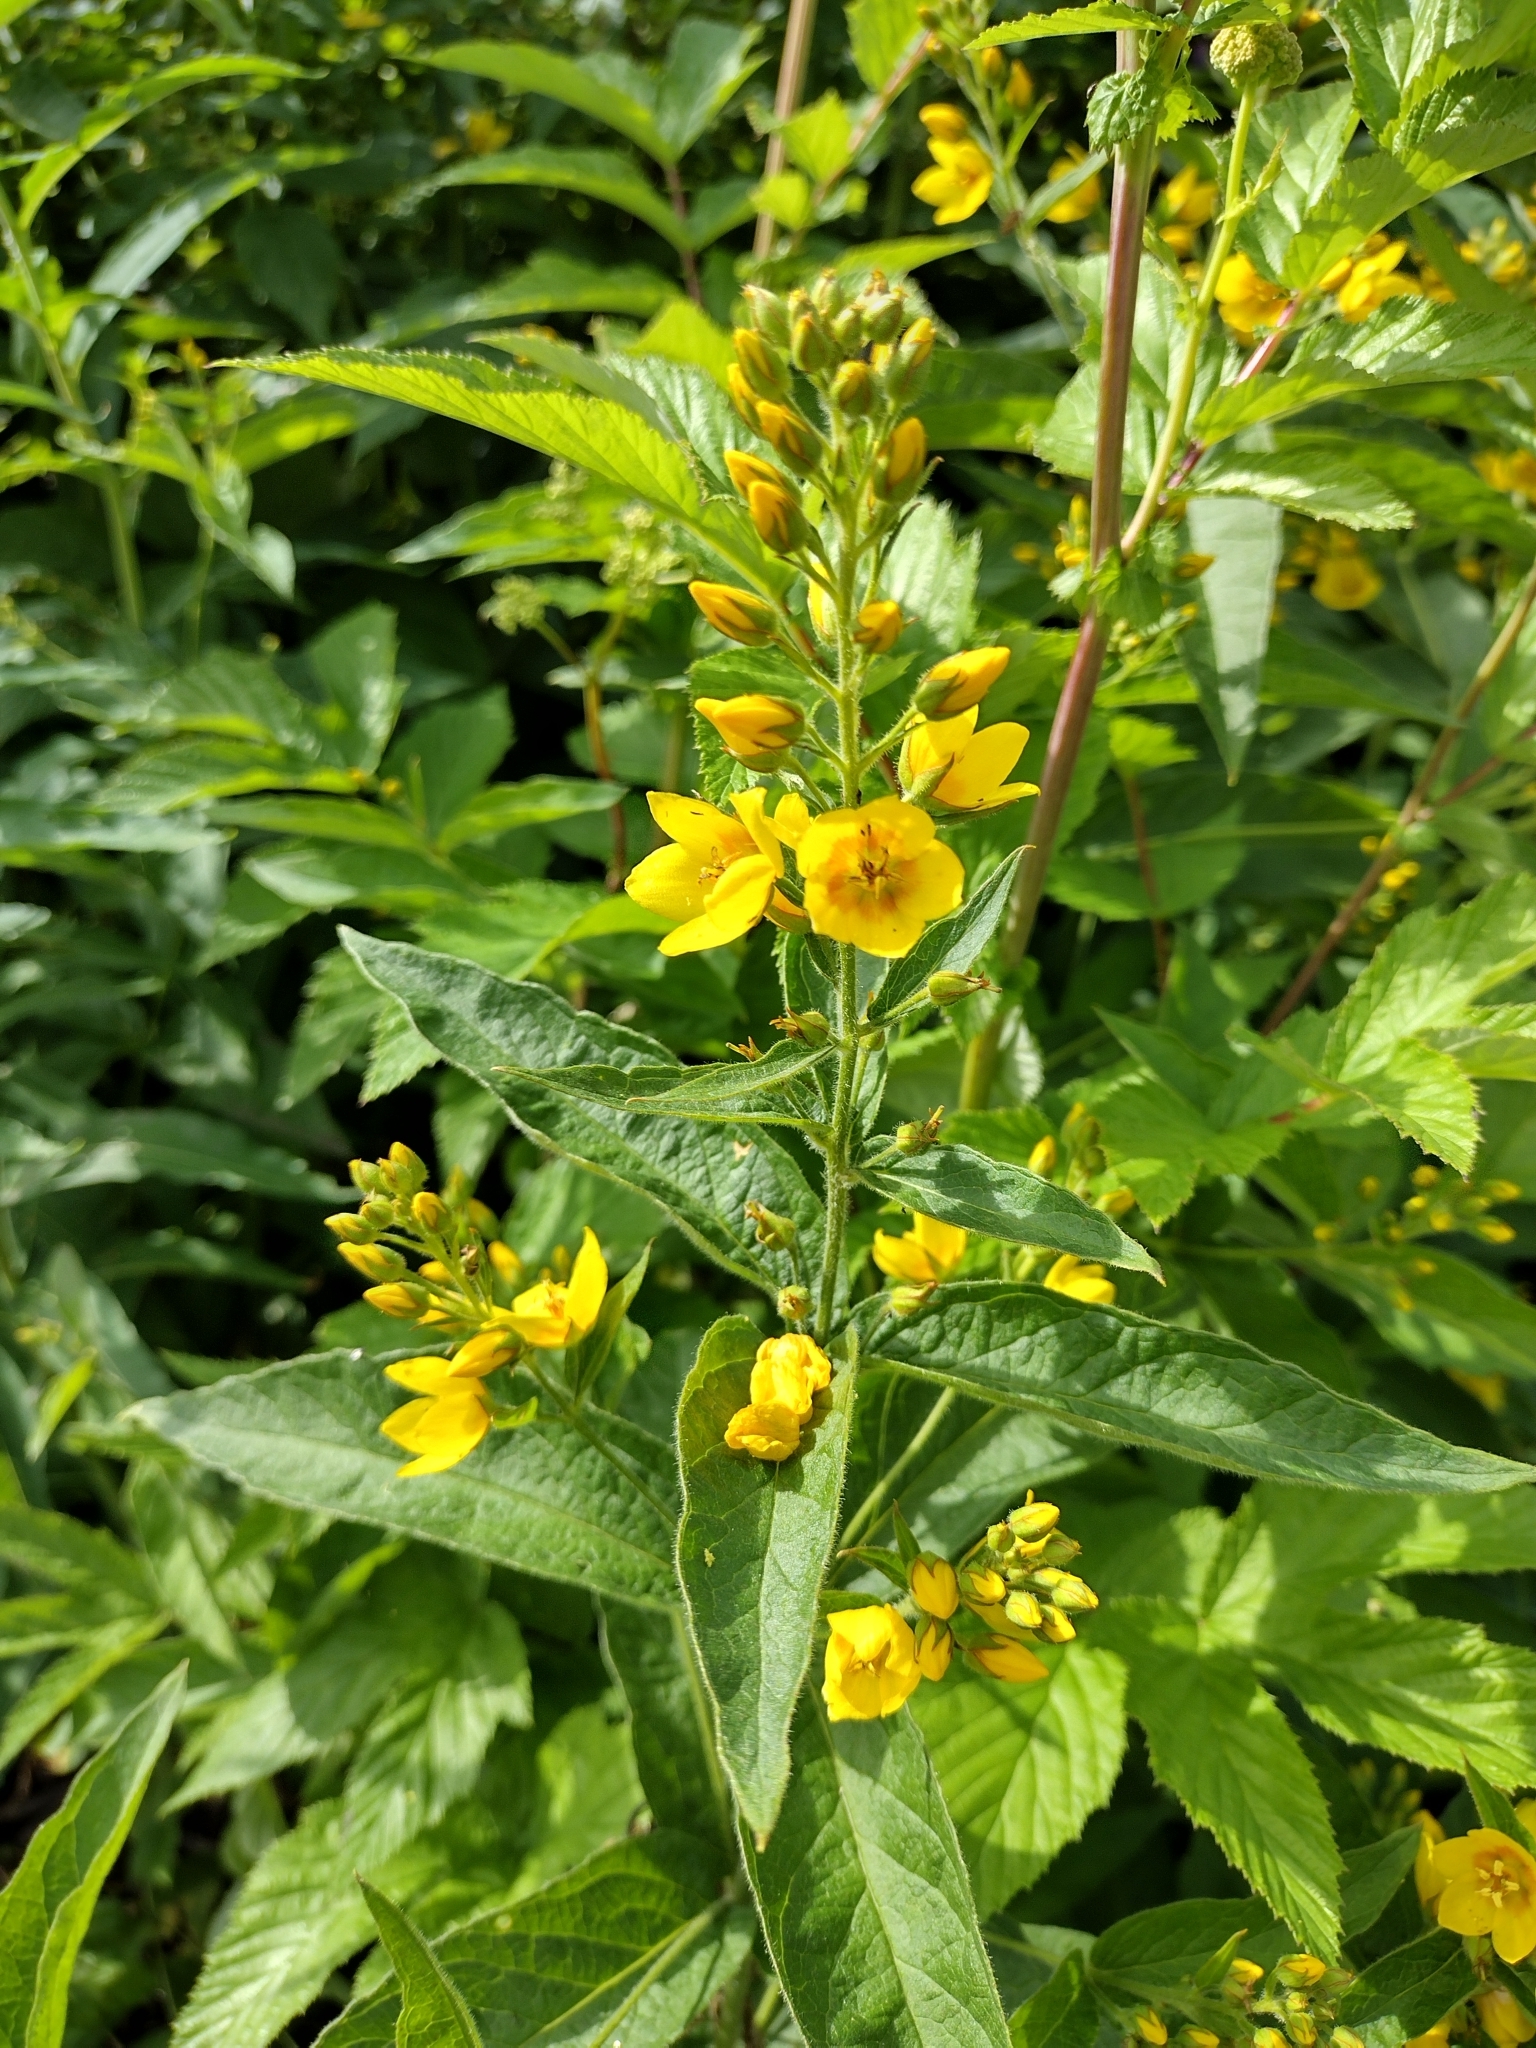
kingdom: Plantae
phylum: Tracheophyta
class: Magnoliopsida
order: Ericales
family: Primulaceae
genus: Lysimachia
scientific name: Lysimachia vulgaris
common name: Yellow loosestrife
